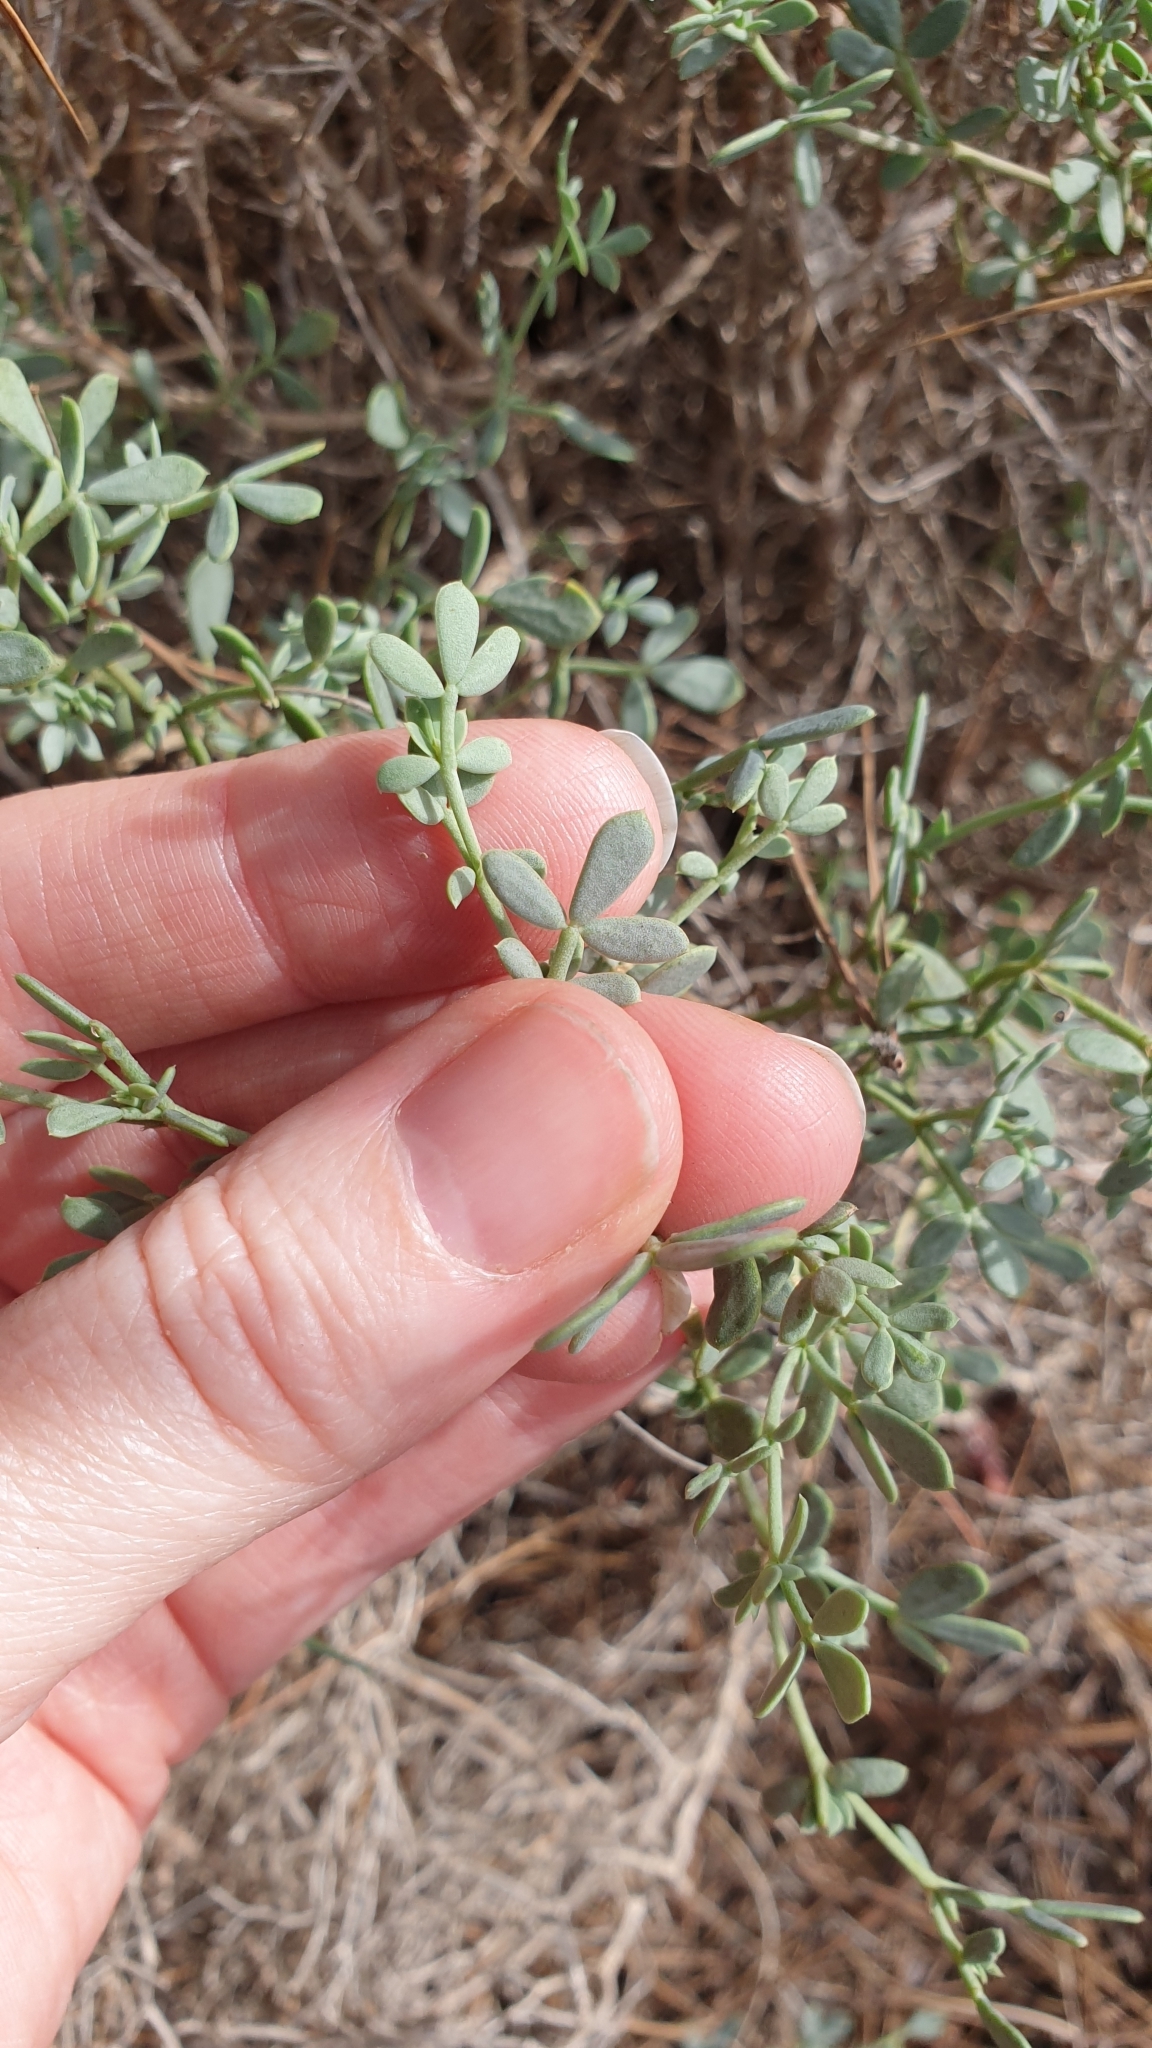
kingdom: Plantae
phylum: Tracheophyta
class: Magnoliopsida
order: Fabales
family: Fabaceae
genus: Coronilla
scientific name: Coronilla minima
